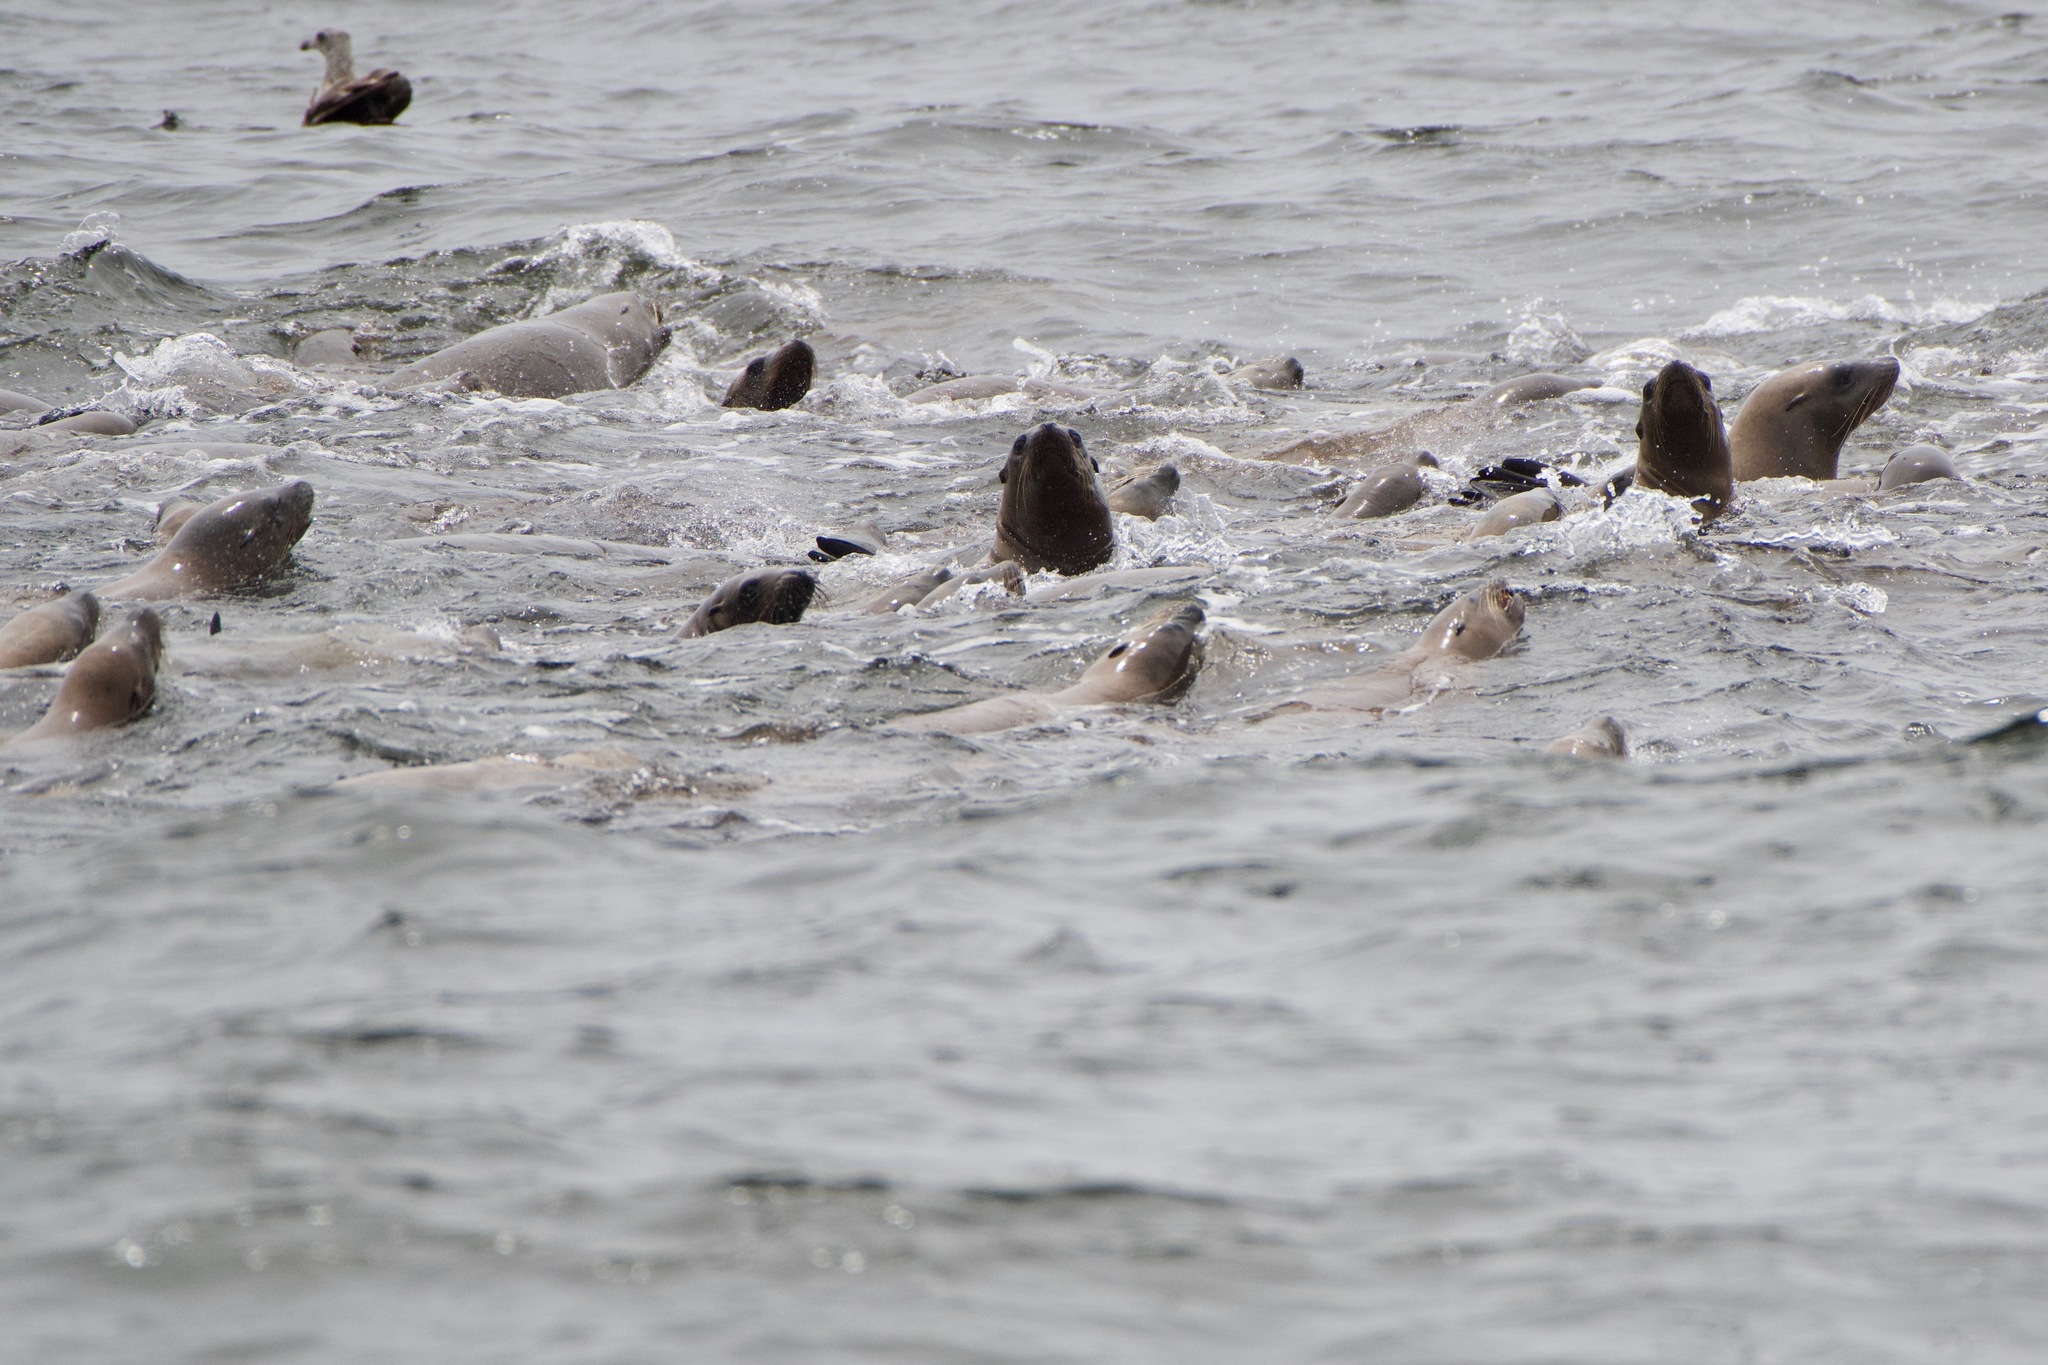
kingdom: Animalia
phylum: Chordata
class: Mammalia
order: Carnivora
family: Otariidae
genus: Zalophus
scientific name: Zalophus californianus
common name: California sea lion
